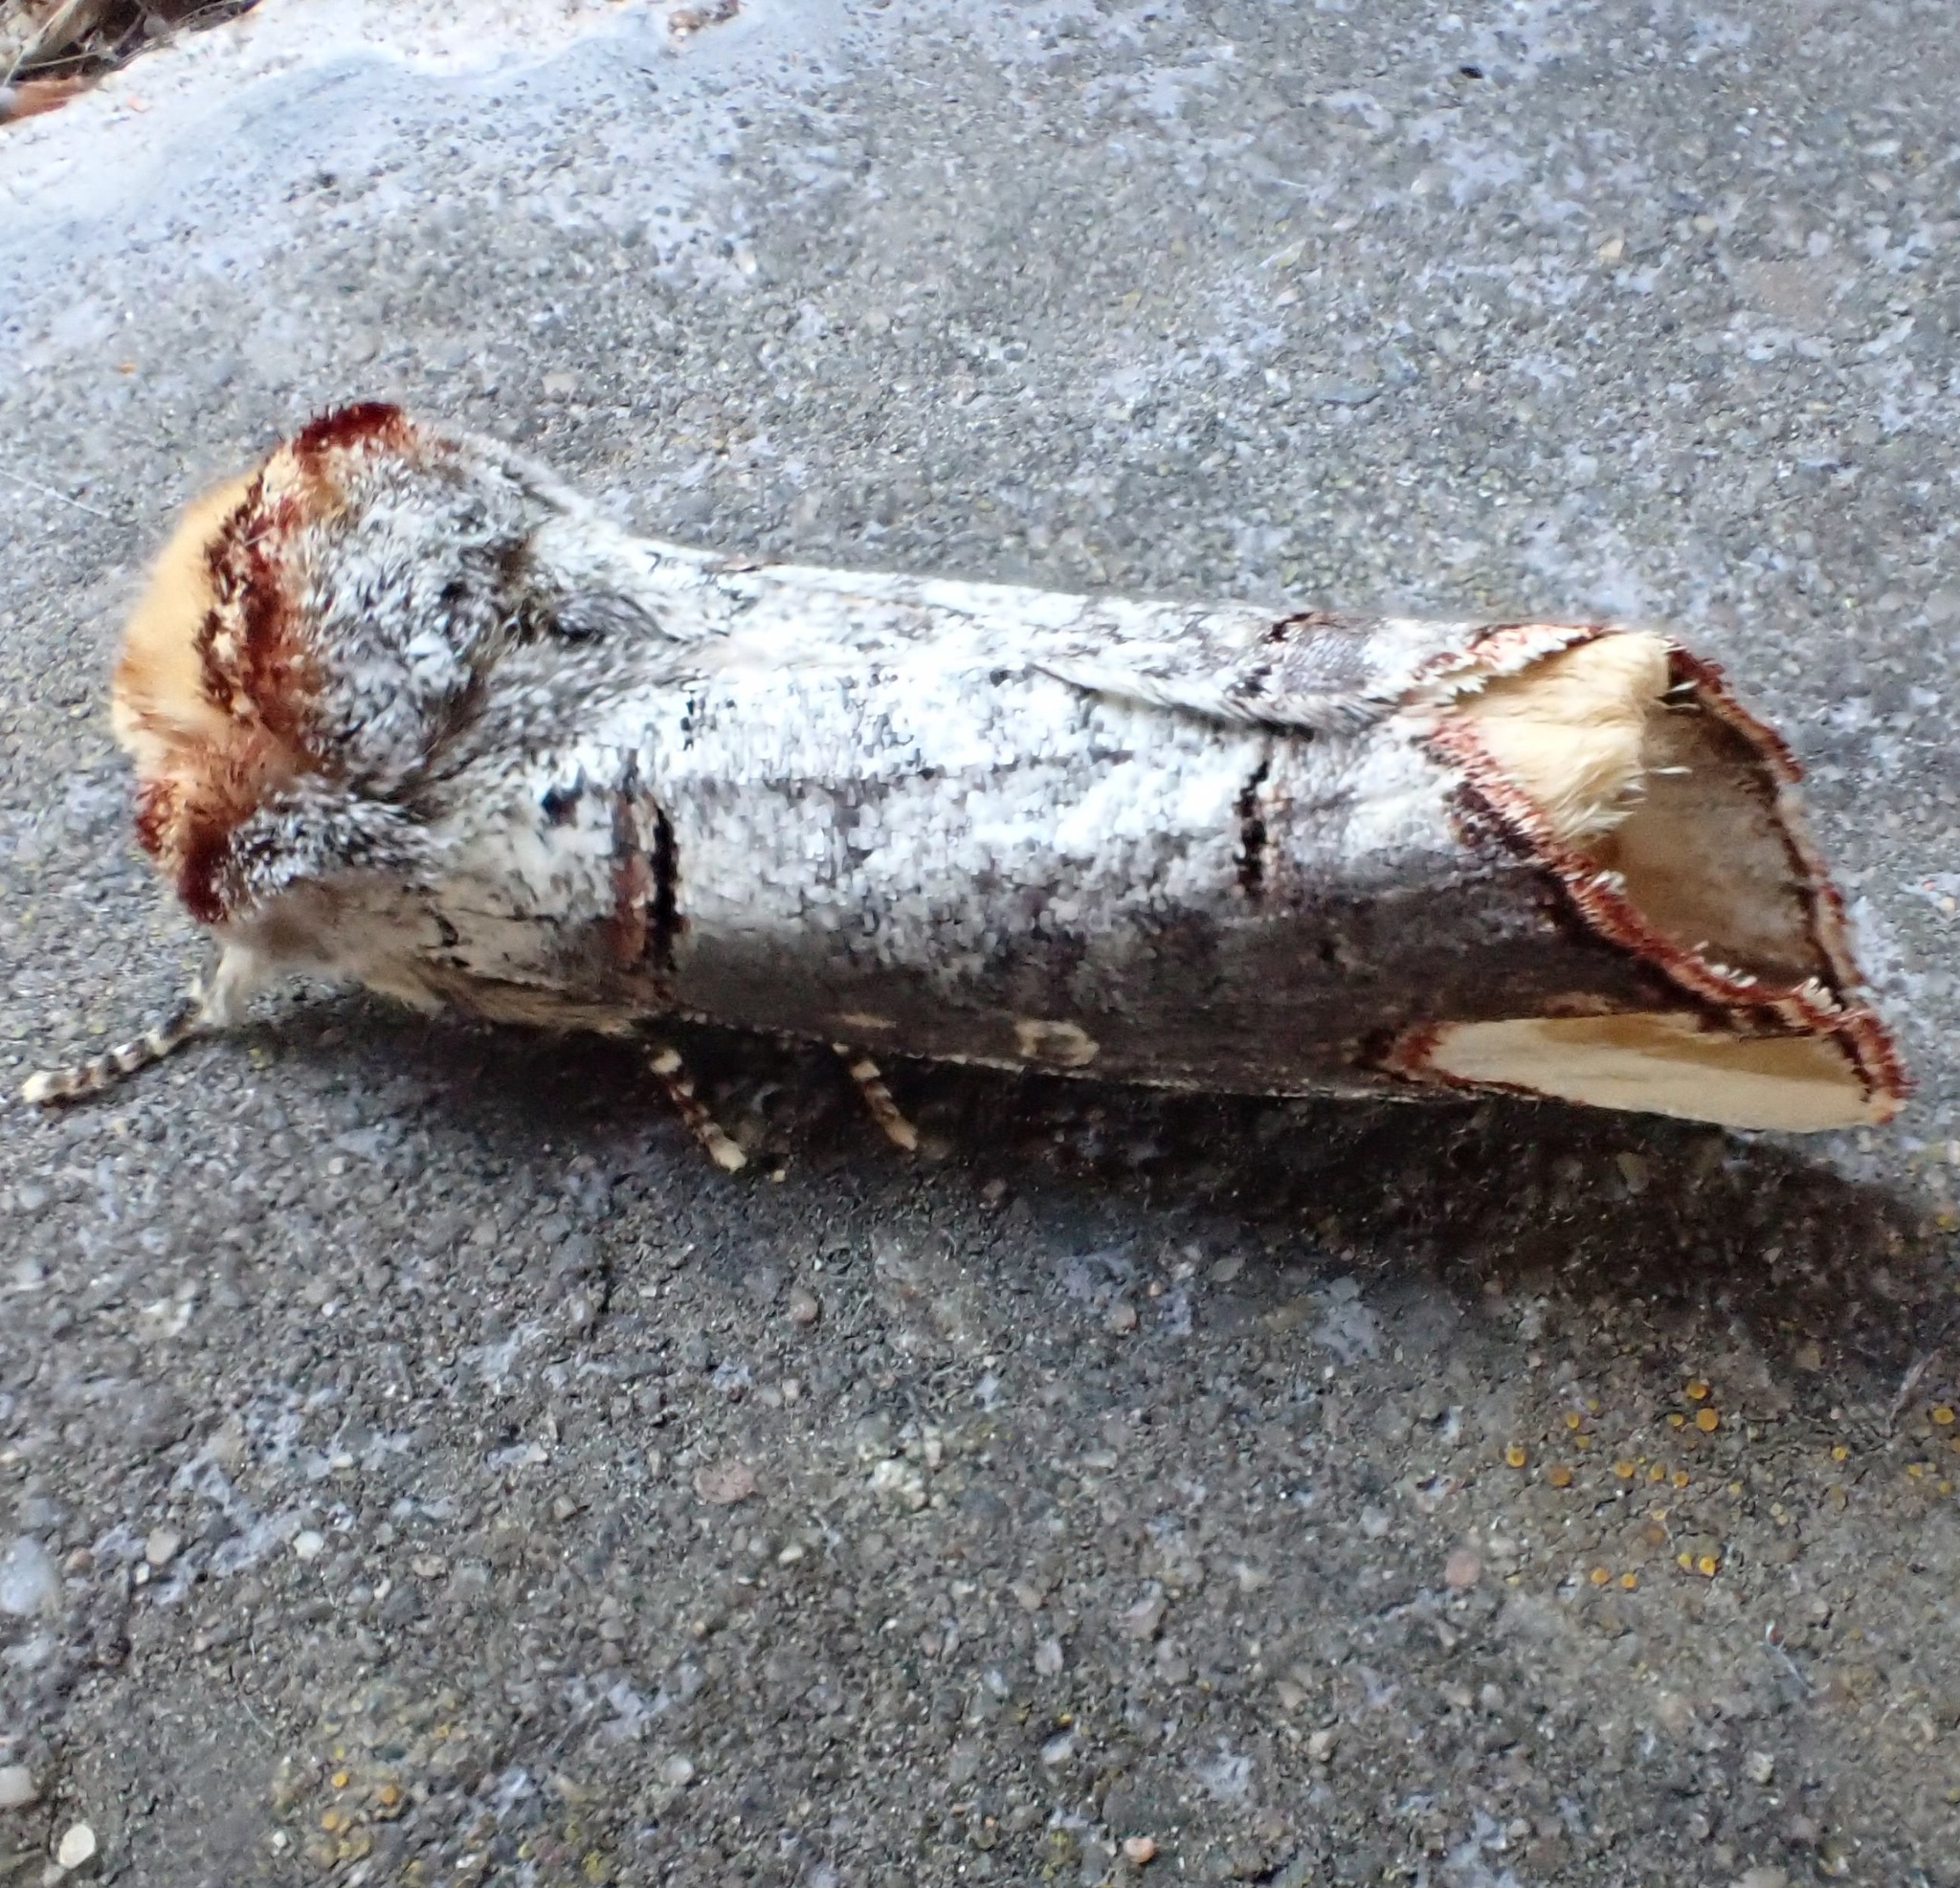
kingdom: Animalia
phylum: Arthropoda
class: Insecta
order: Lepidoptera
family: Notodontidae
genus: Phalera
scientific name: Phalera bucephala
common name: Buff-tip
